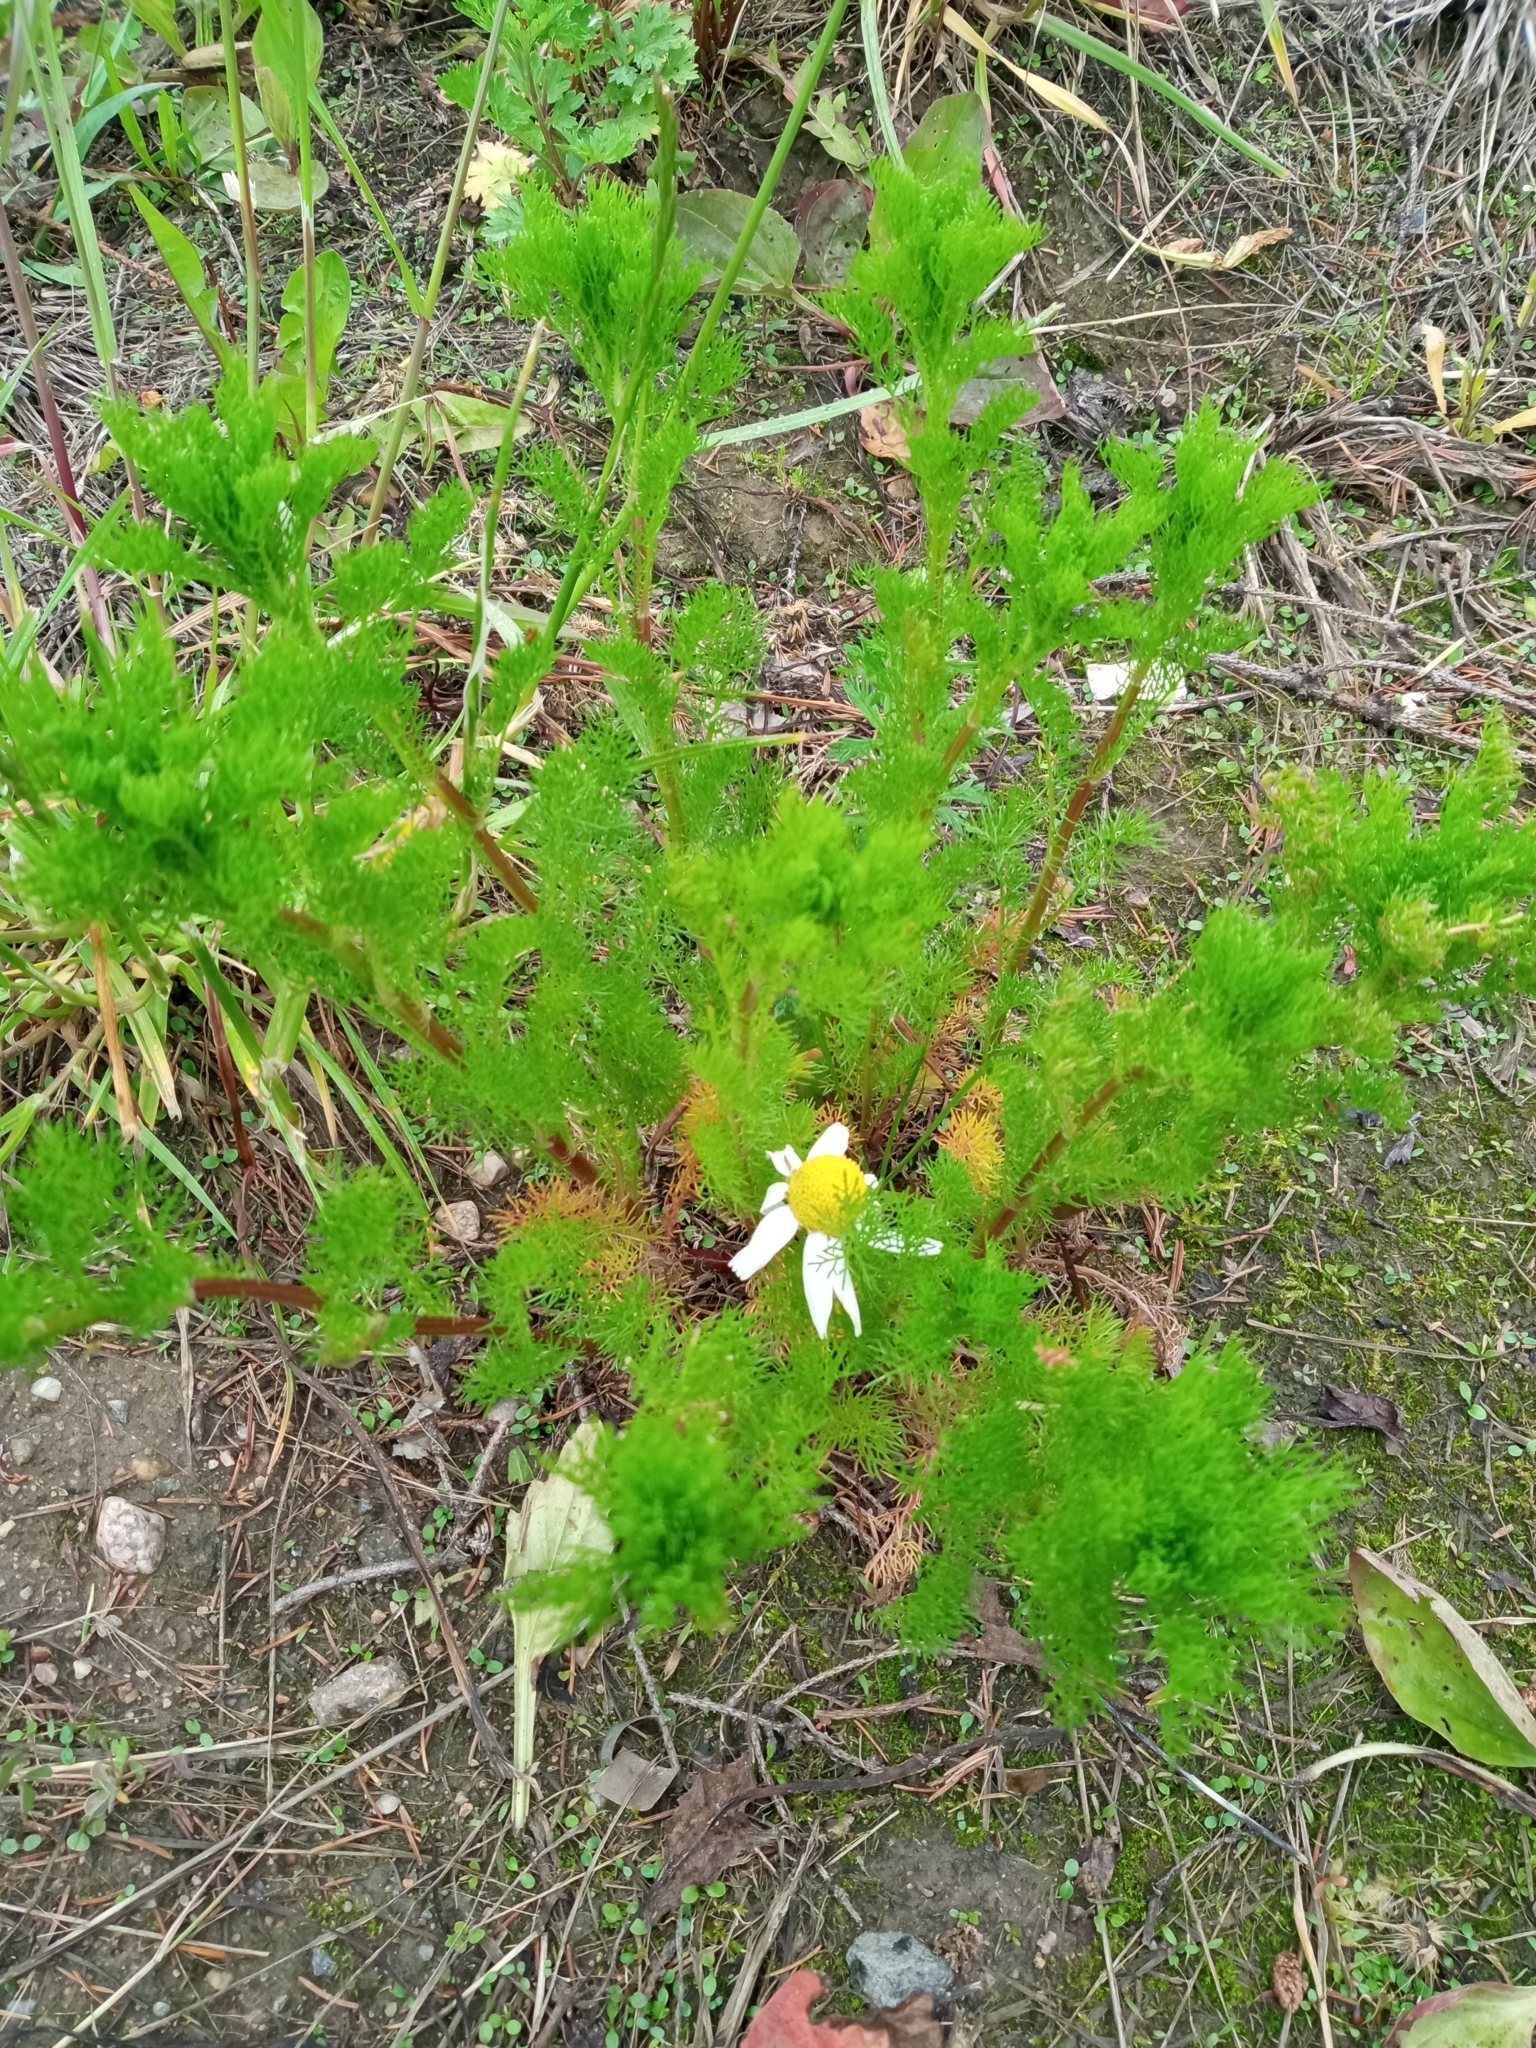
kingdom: Plantae
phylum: Tracheophyta
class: Magnoliopsida
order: Asterales
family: Asteraceae
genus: Tripleurospermum
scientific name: Tripleurospermum inodorum
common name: Scentless mayweed
